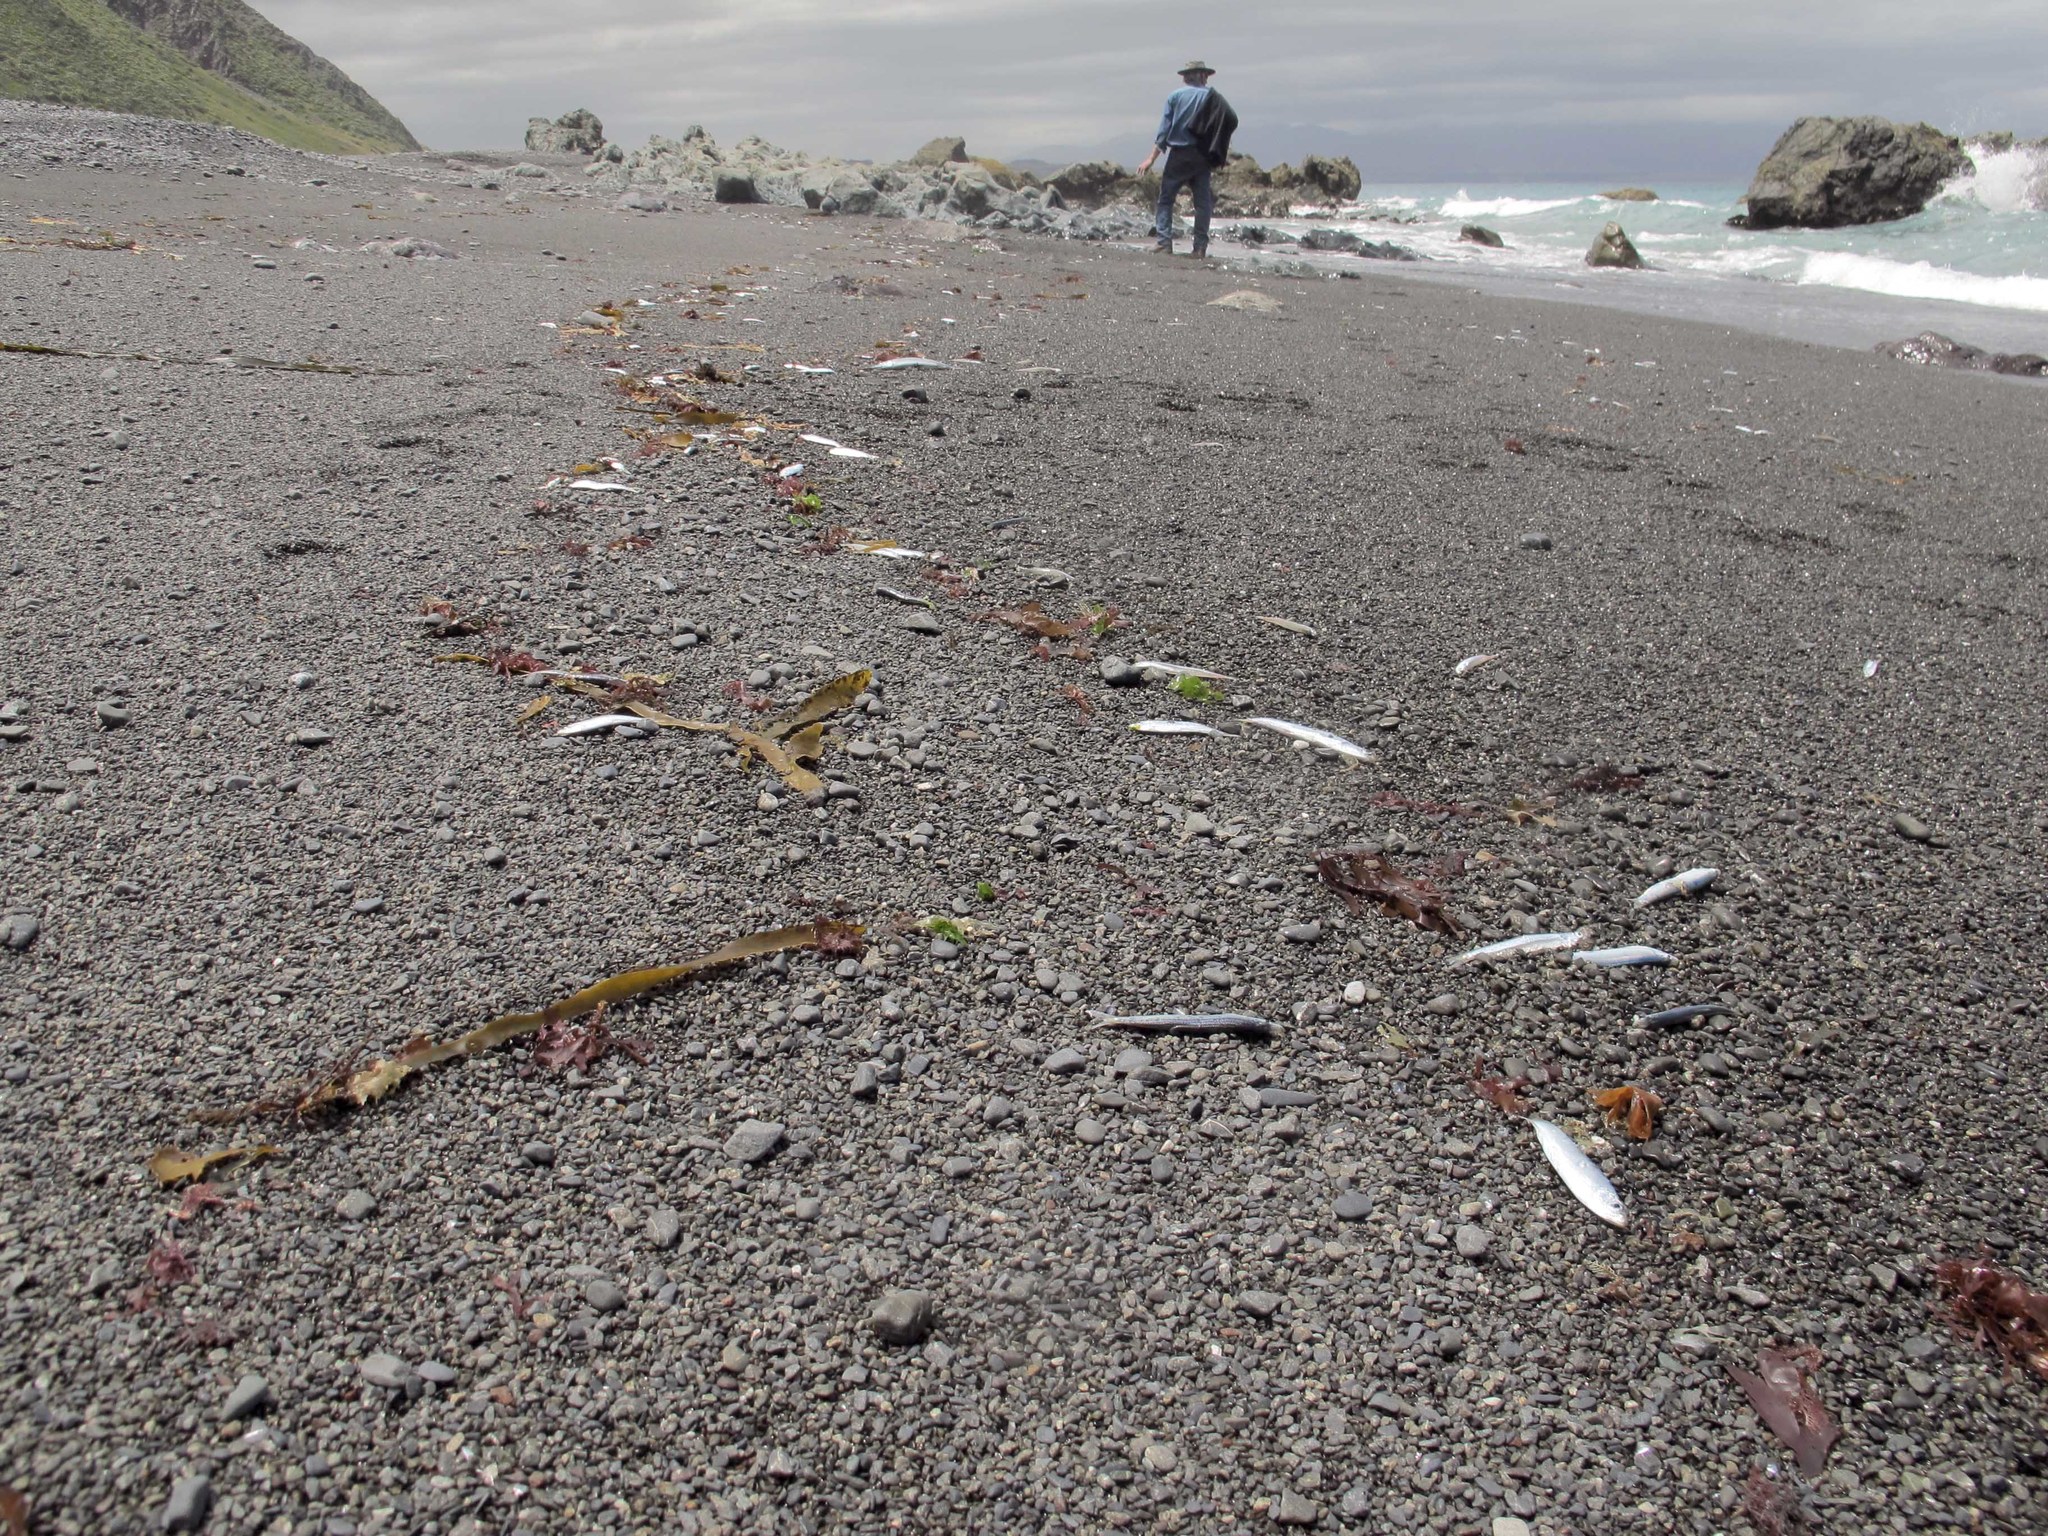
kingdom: Animalia
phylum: Chordata
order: Clupeiformes
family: Engraulidae
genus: Engraulis
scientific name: Engraulis australis
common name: Australian anchovy
